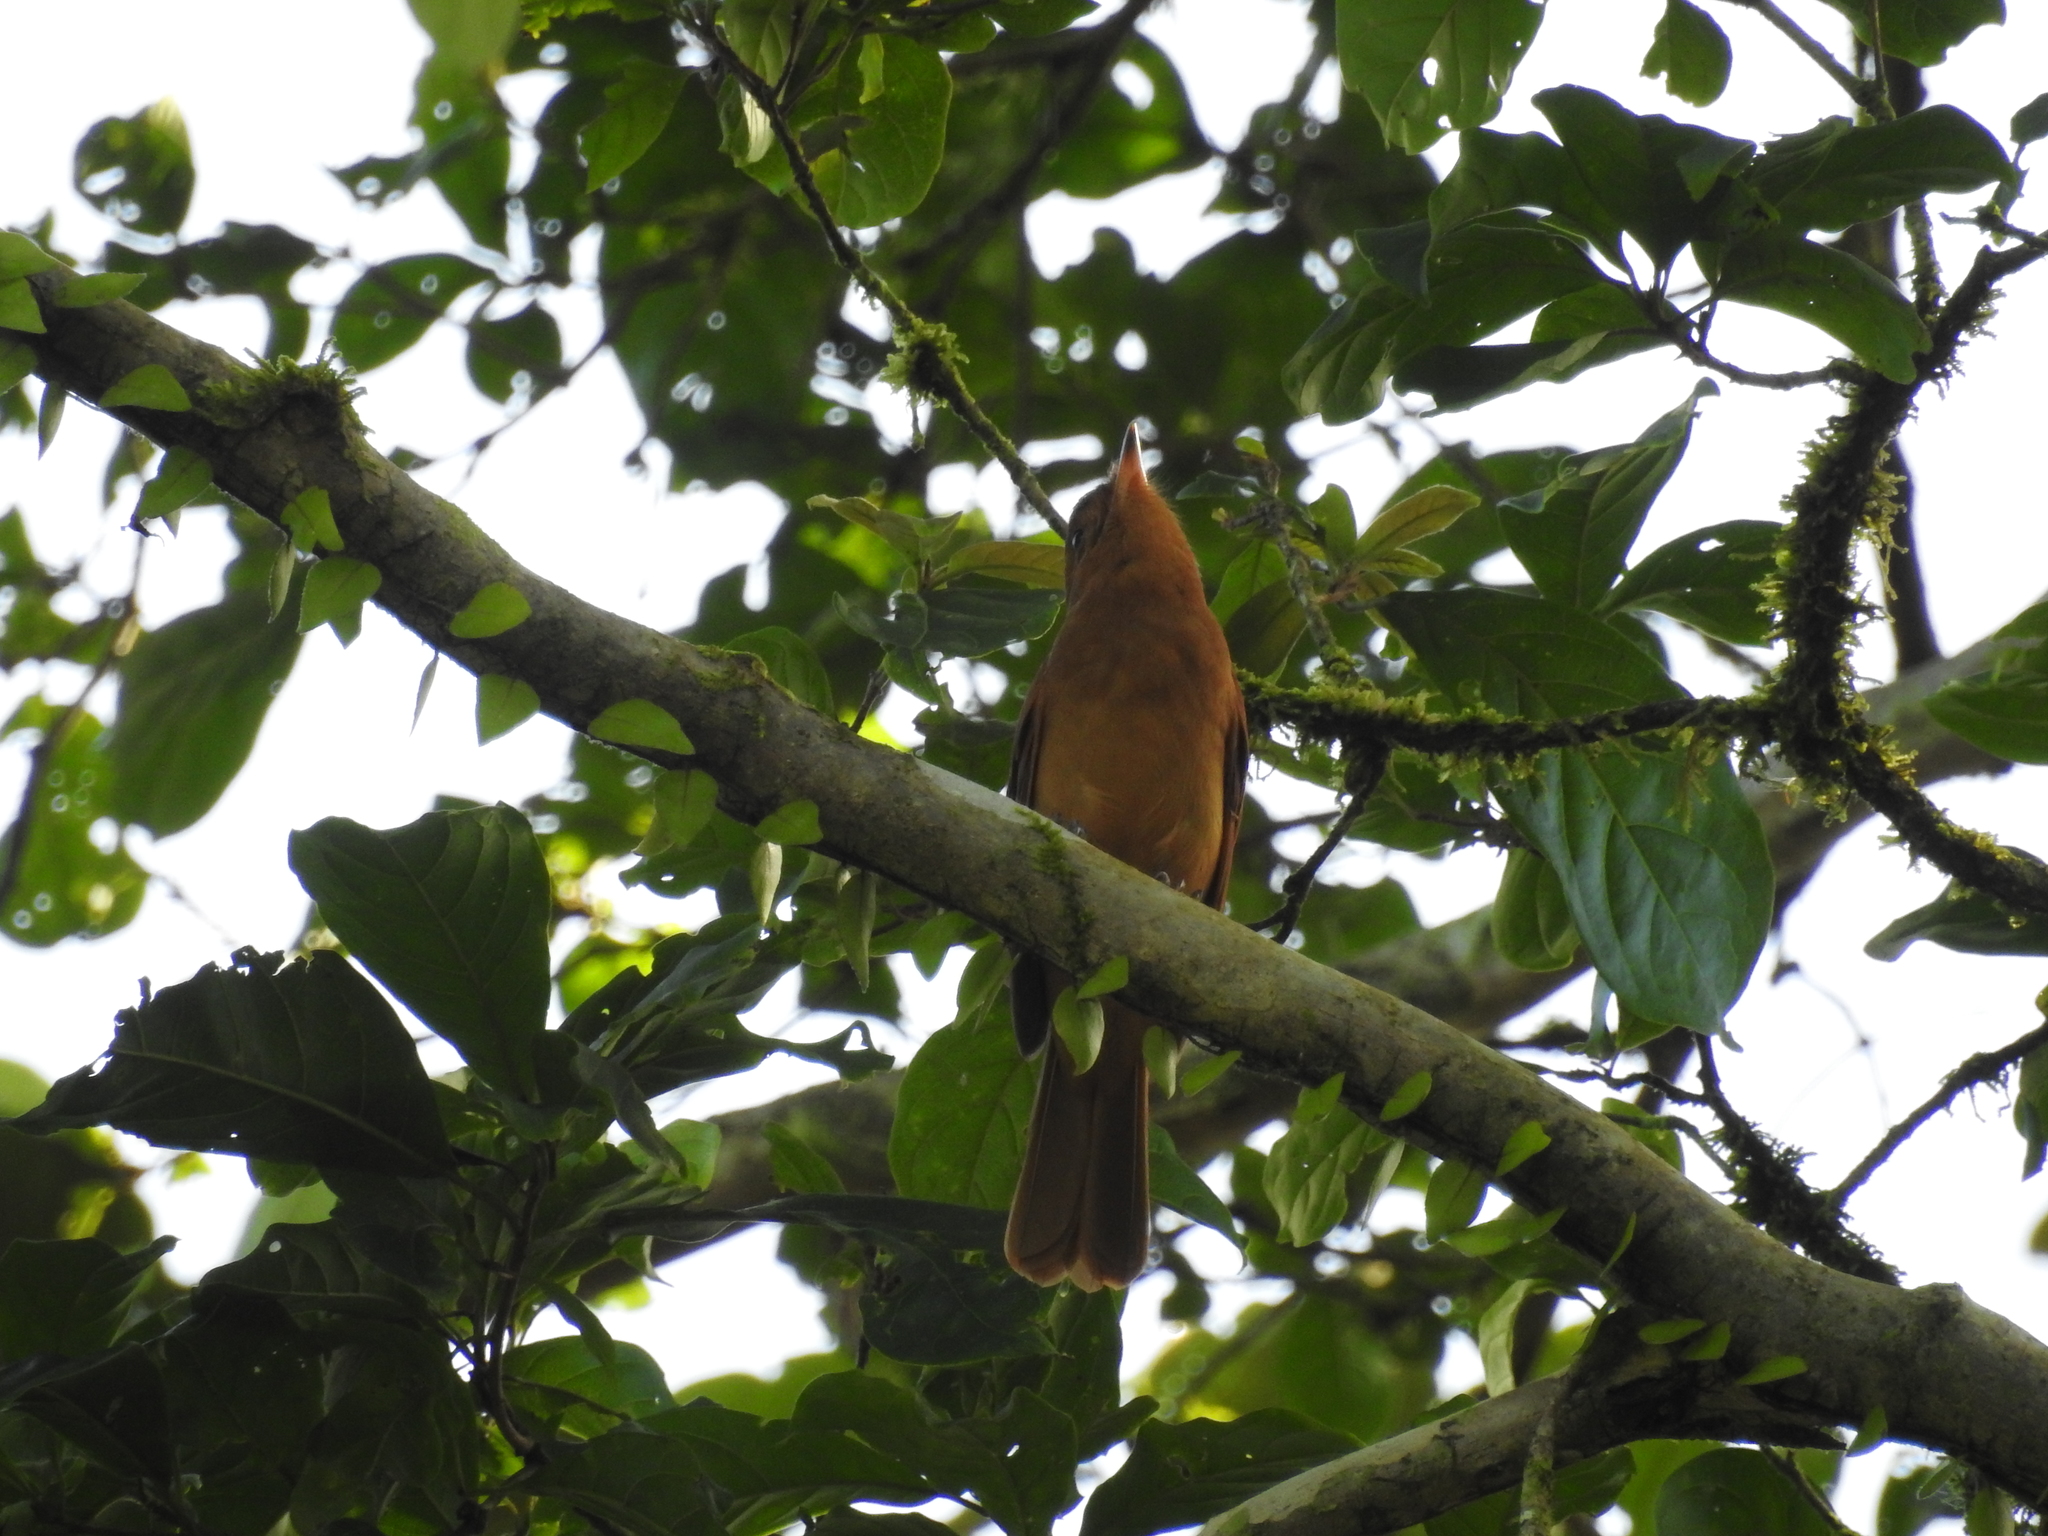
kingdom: Animalia
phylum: Chordata
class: Aves
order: Passeriformes
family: Tyrannidae
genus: Rhytipterna
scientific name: Rhytipterna holerythra
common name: Rufous mourner
